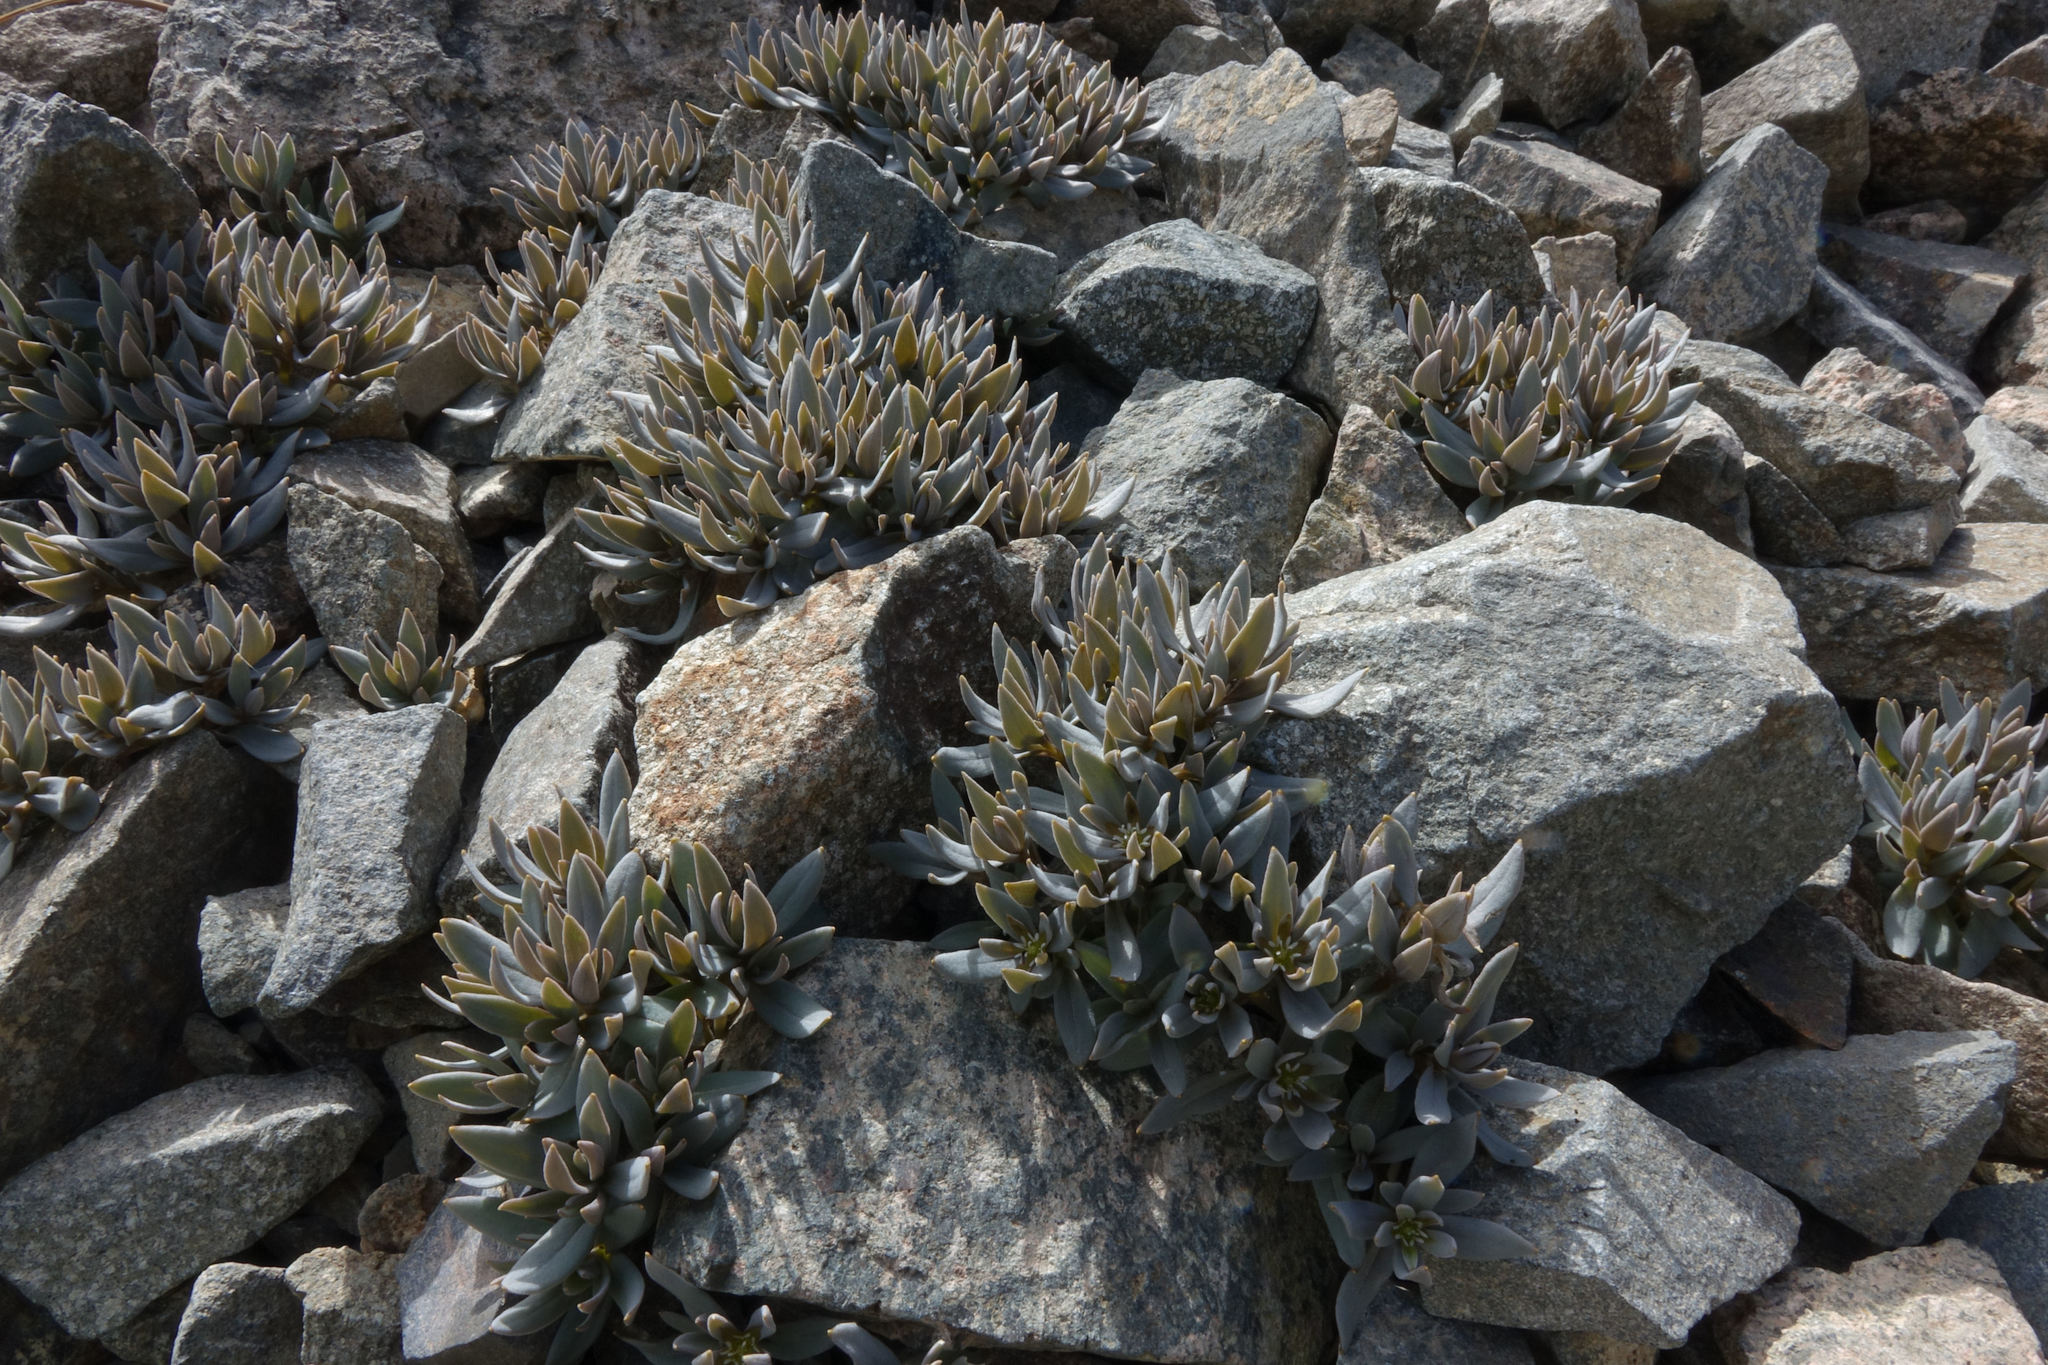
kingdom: Plantae
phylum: Tracheophyta
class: Magnoliopsida
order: Caryophyllales
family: Caryophyllaceae
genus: Stellaria
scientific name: Stellaria roughii
